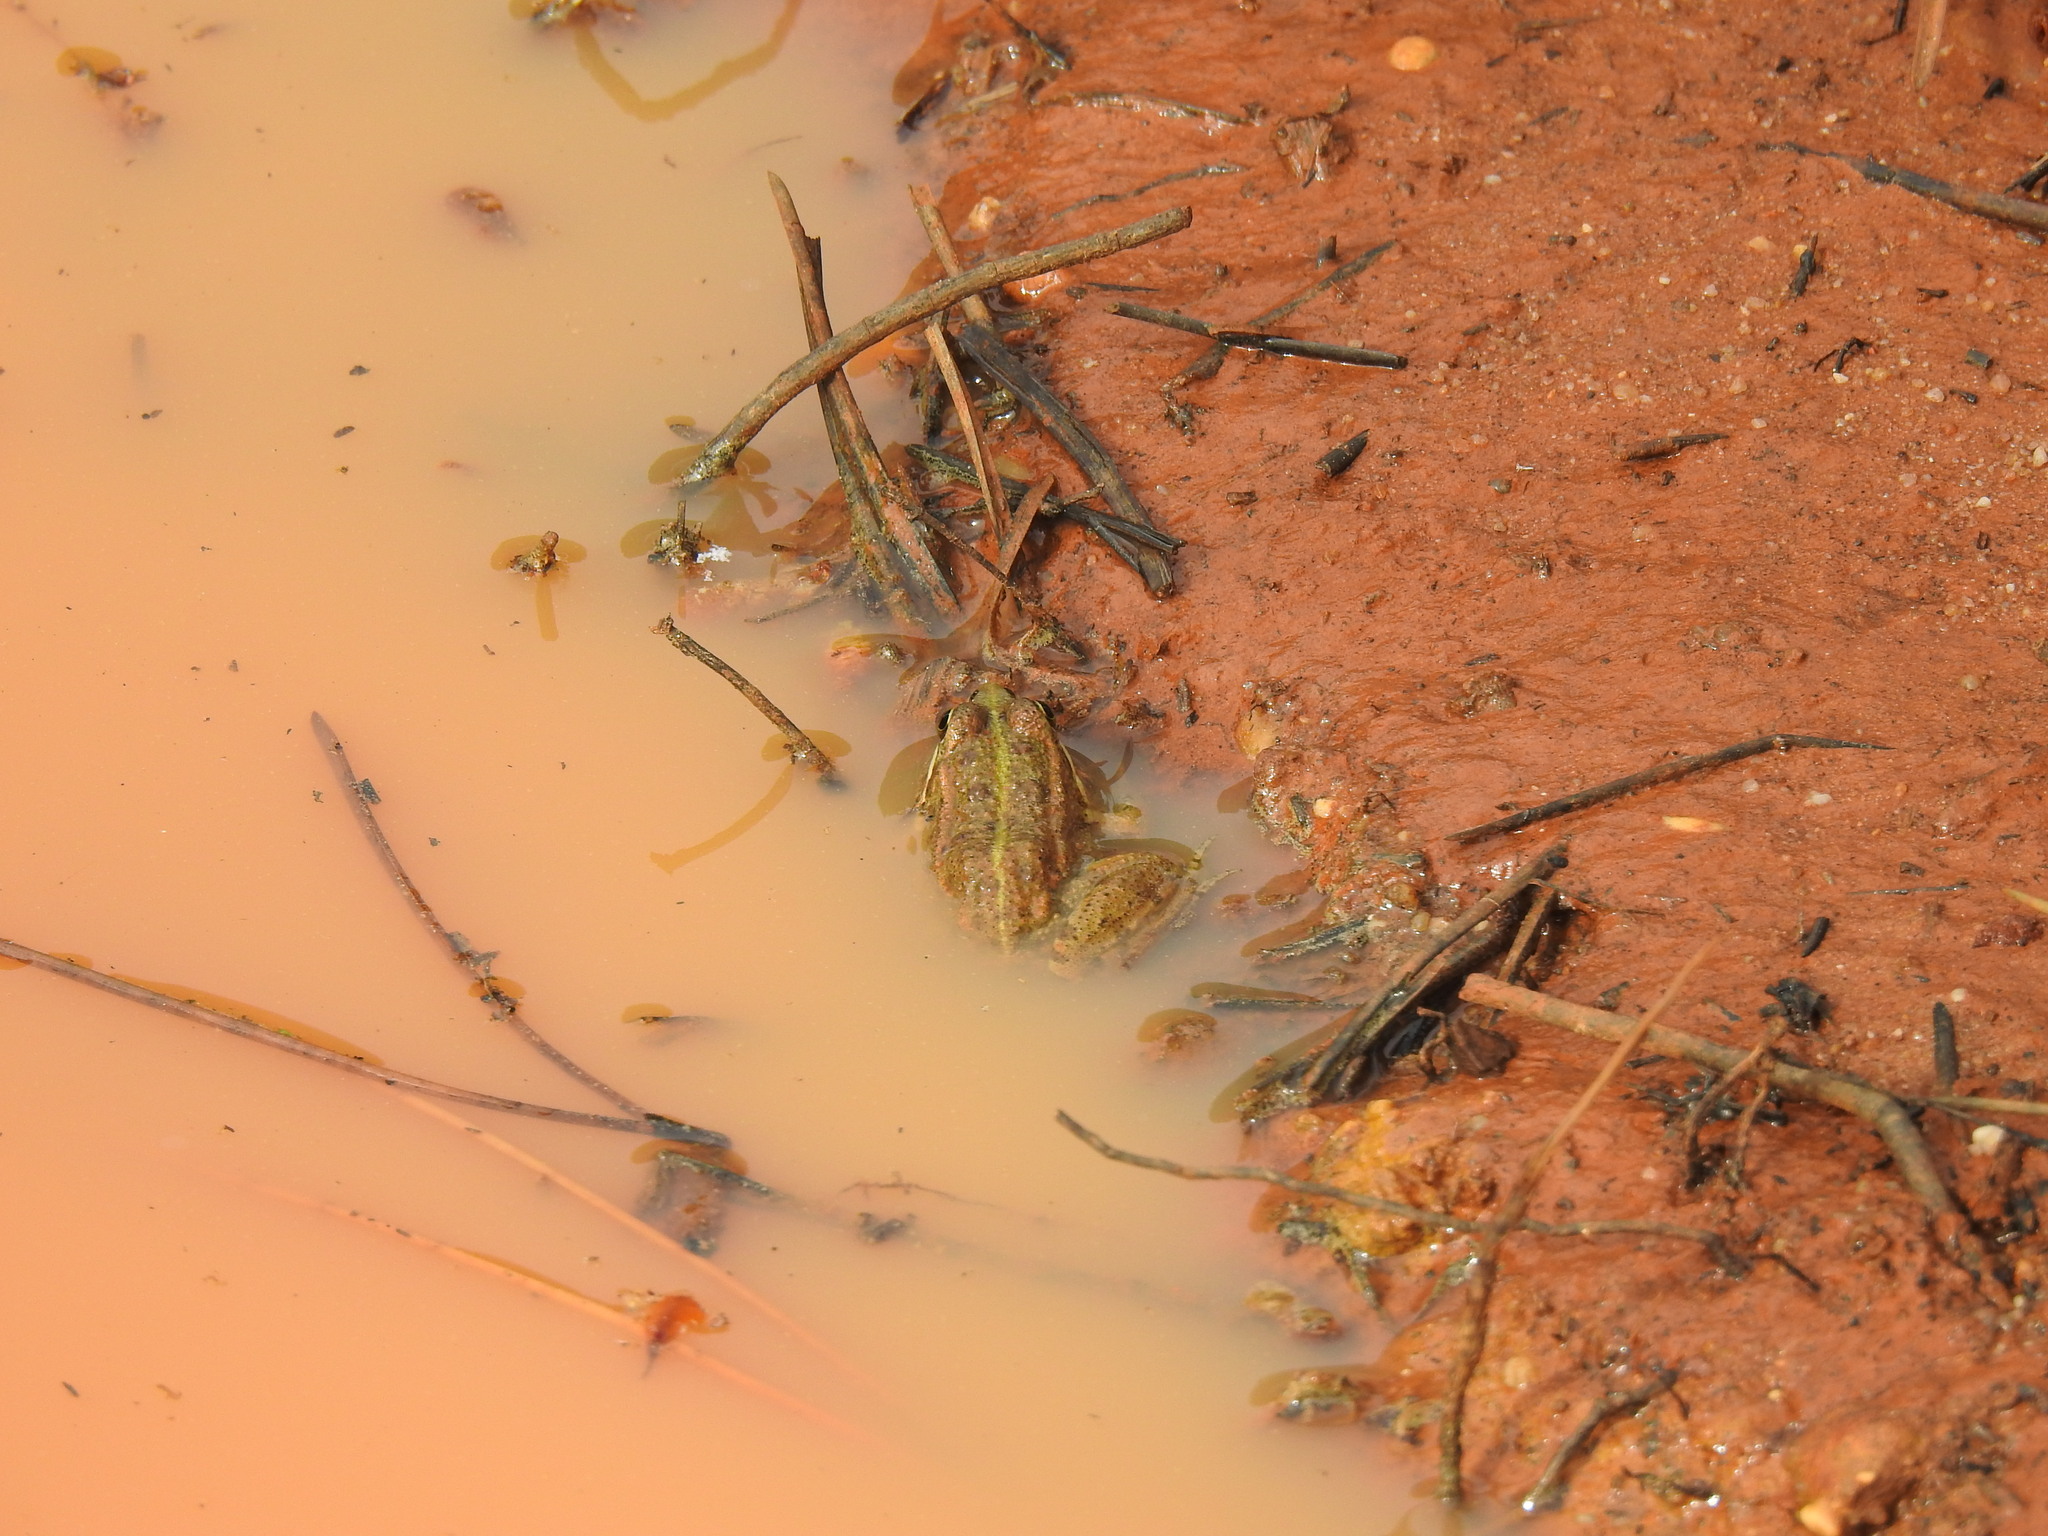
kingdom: Animalia
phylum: Chordata
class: Amphibia
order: Anura
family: Ranidae
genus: Pelophylax
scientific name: Pelophylax perezi
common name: Perez's frog
